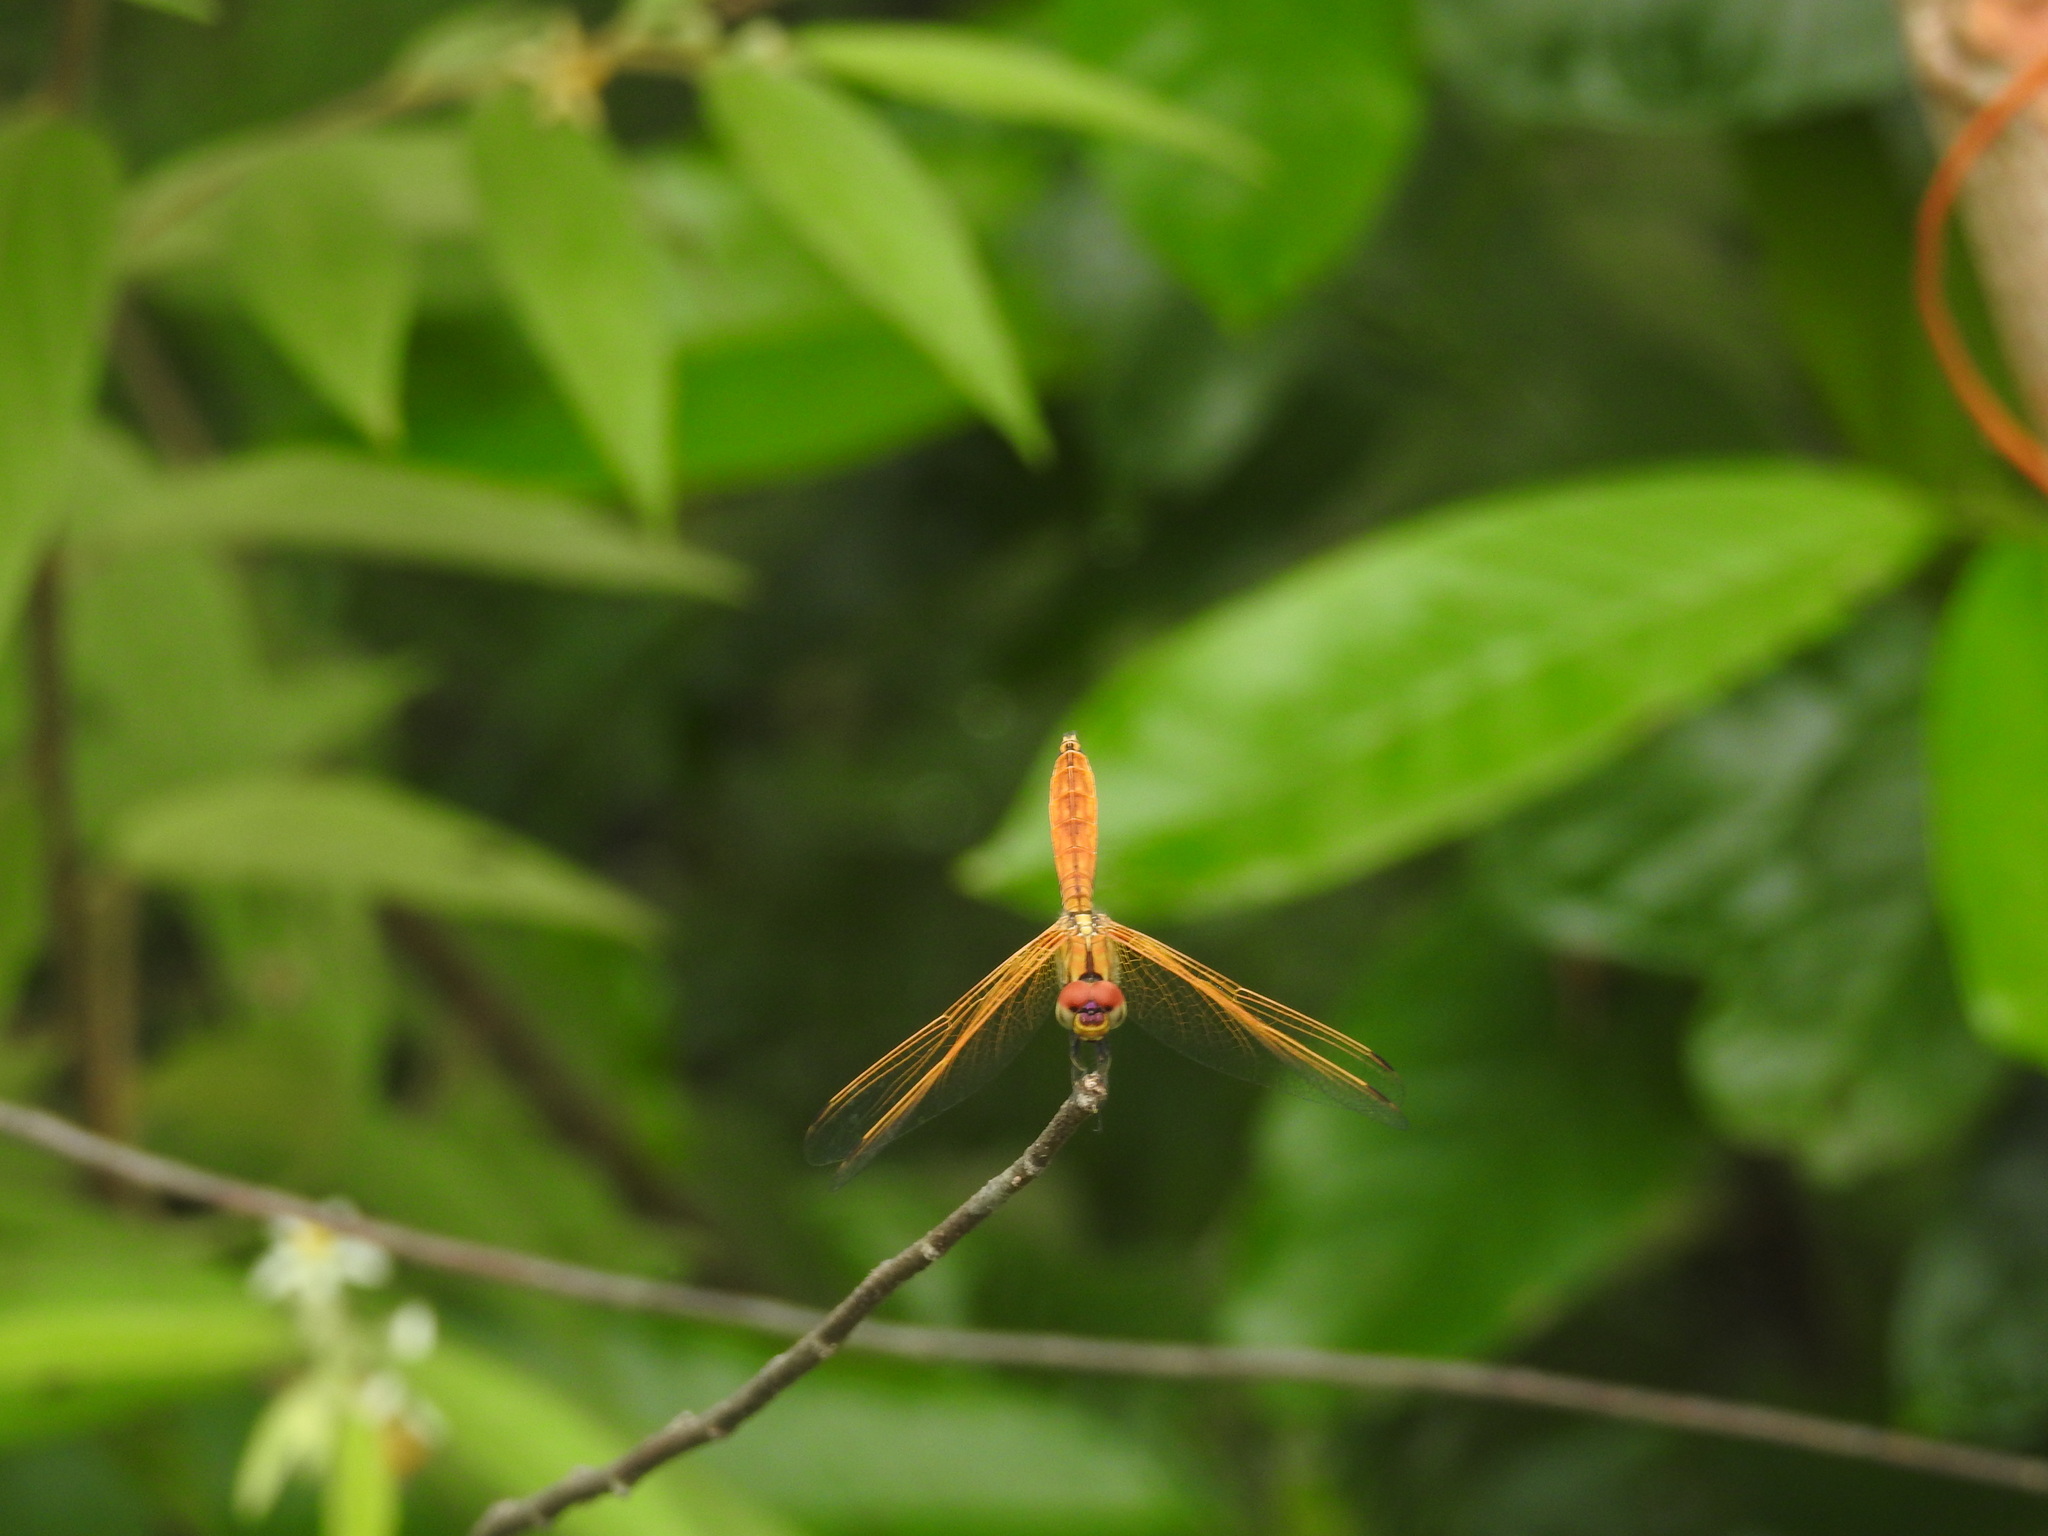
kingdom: Animalia
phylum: Arthropoda
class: Insecta
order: Odonata
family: Libellulidae
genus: Trithemis
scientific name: Trithemis aurora
